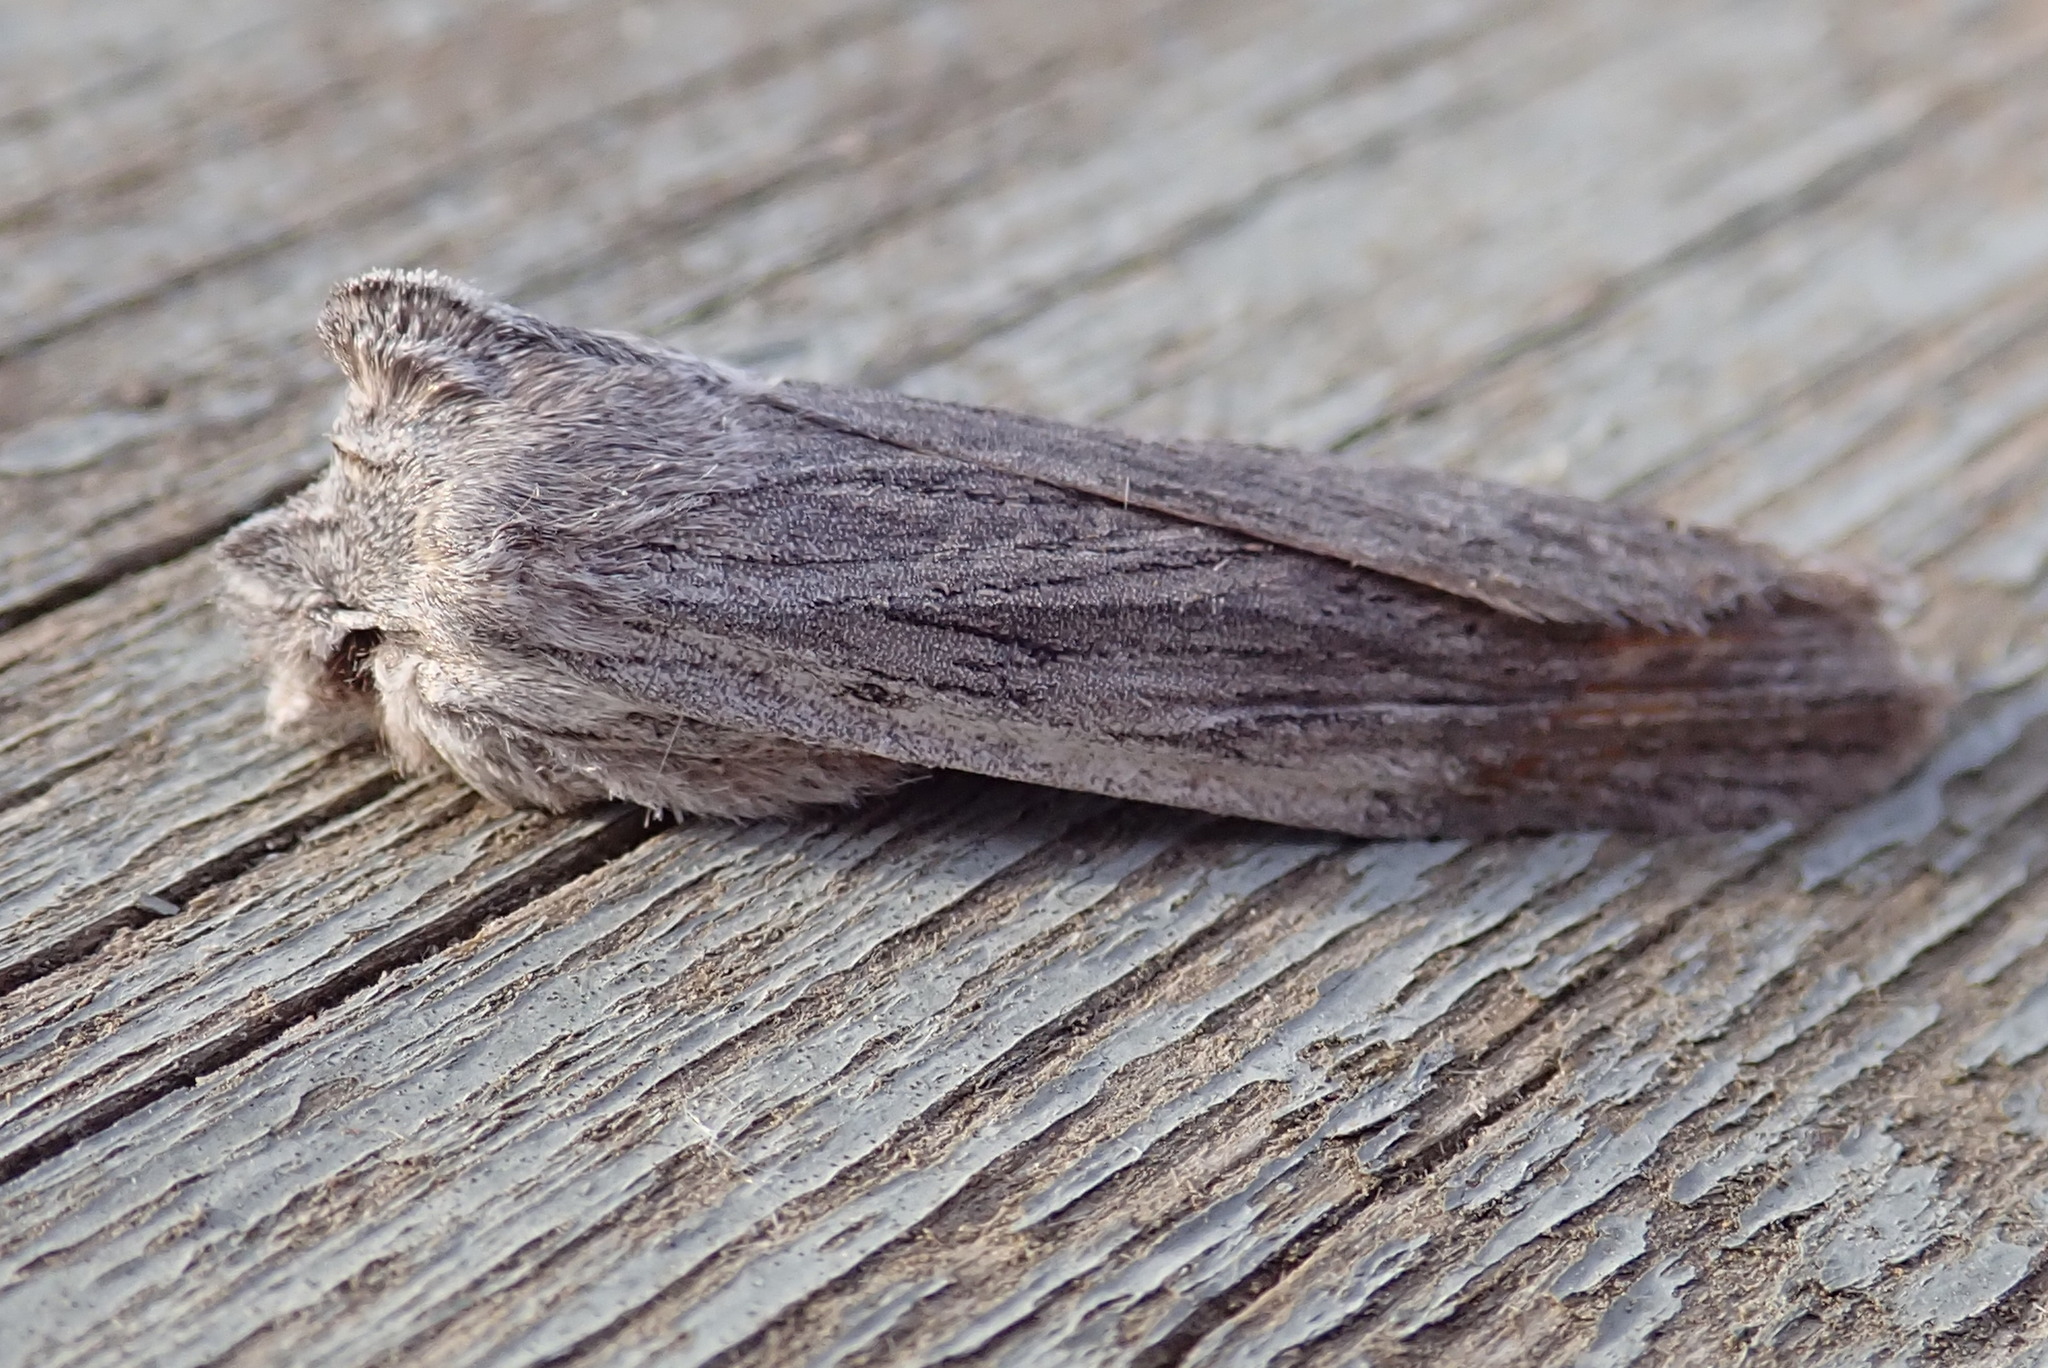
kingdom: Animalia
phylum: Arthropoda
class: Insecta
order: Lepidoptera
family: Noctuidae
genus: Lithophane
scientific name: Lithophane fagina
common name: Hoary pinion moth
